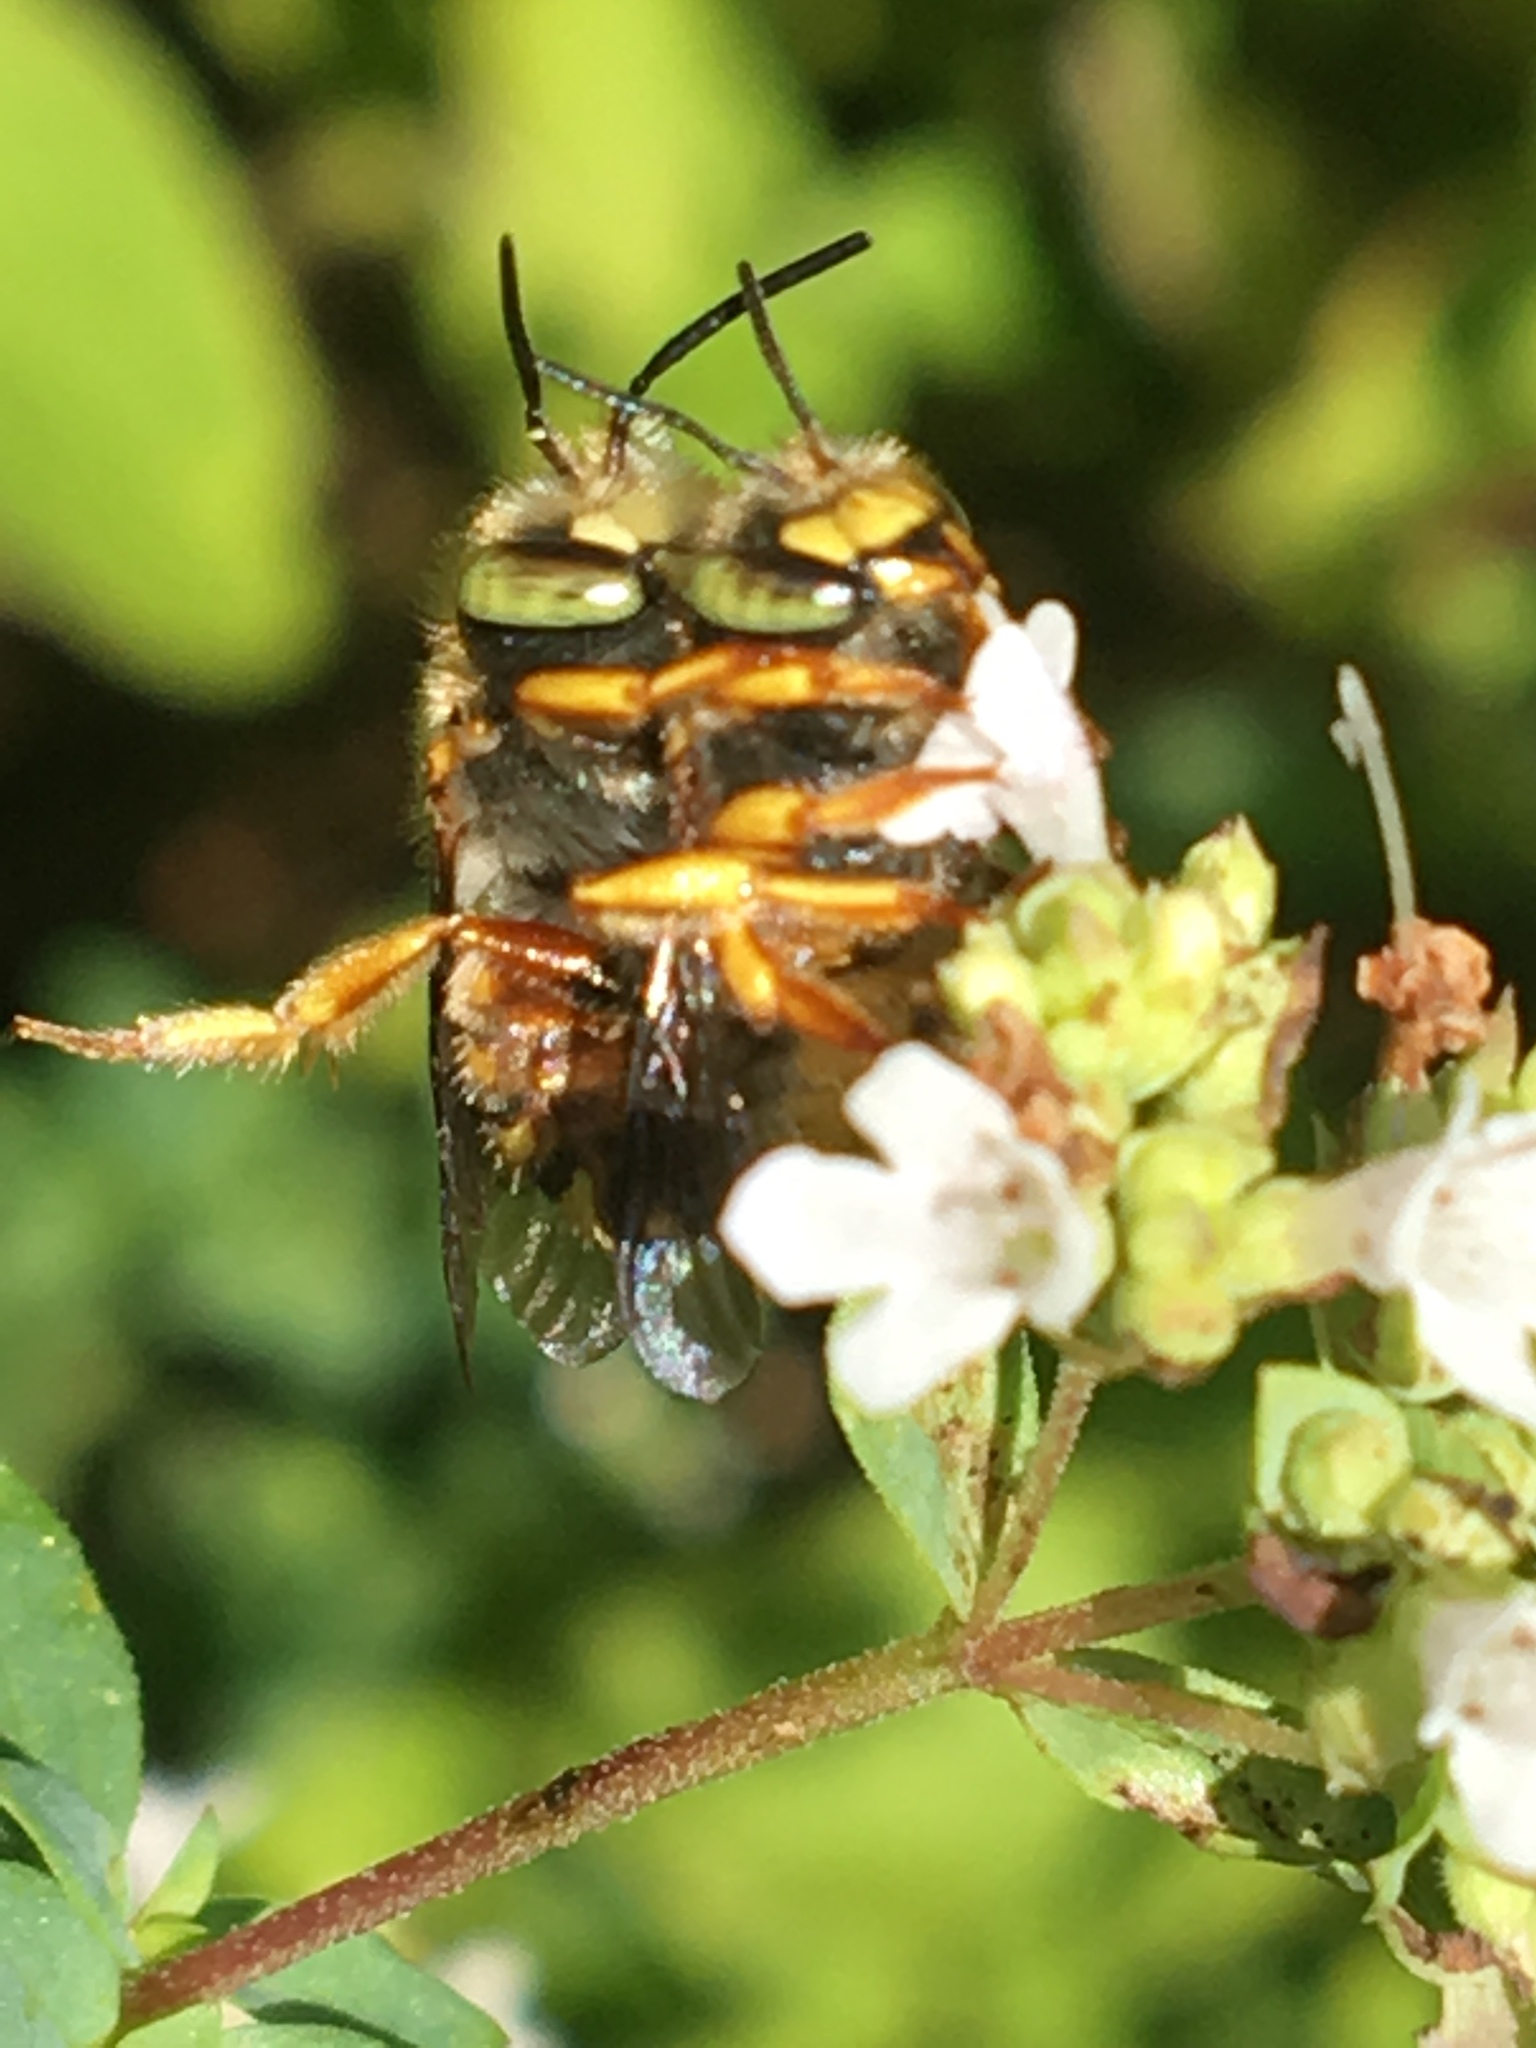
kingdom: Animalia
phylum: Arthropoda
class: Insecta
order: Hymenoptera
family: Megachilidae
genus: Anthidium
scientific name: Anthidium oblongatum
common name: Oblong wool carder bee
